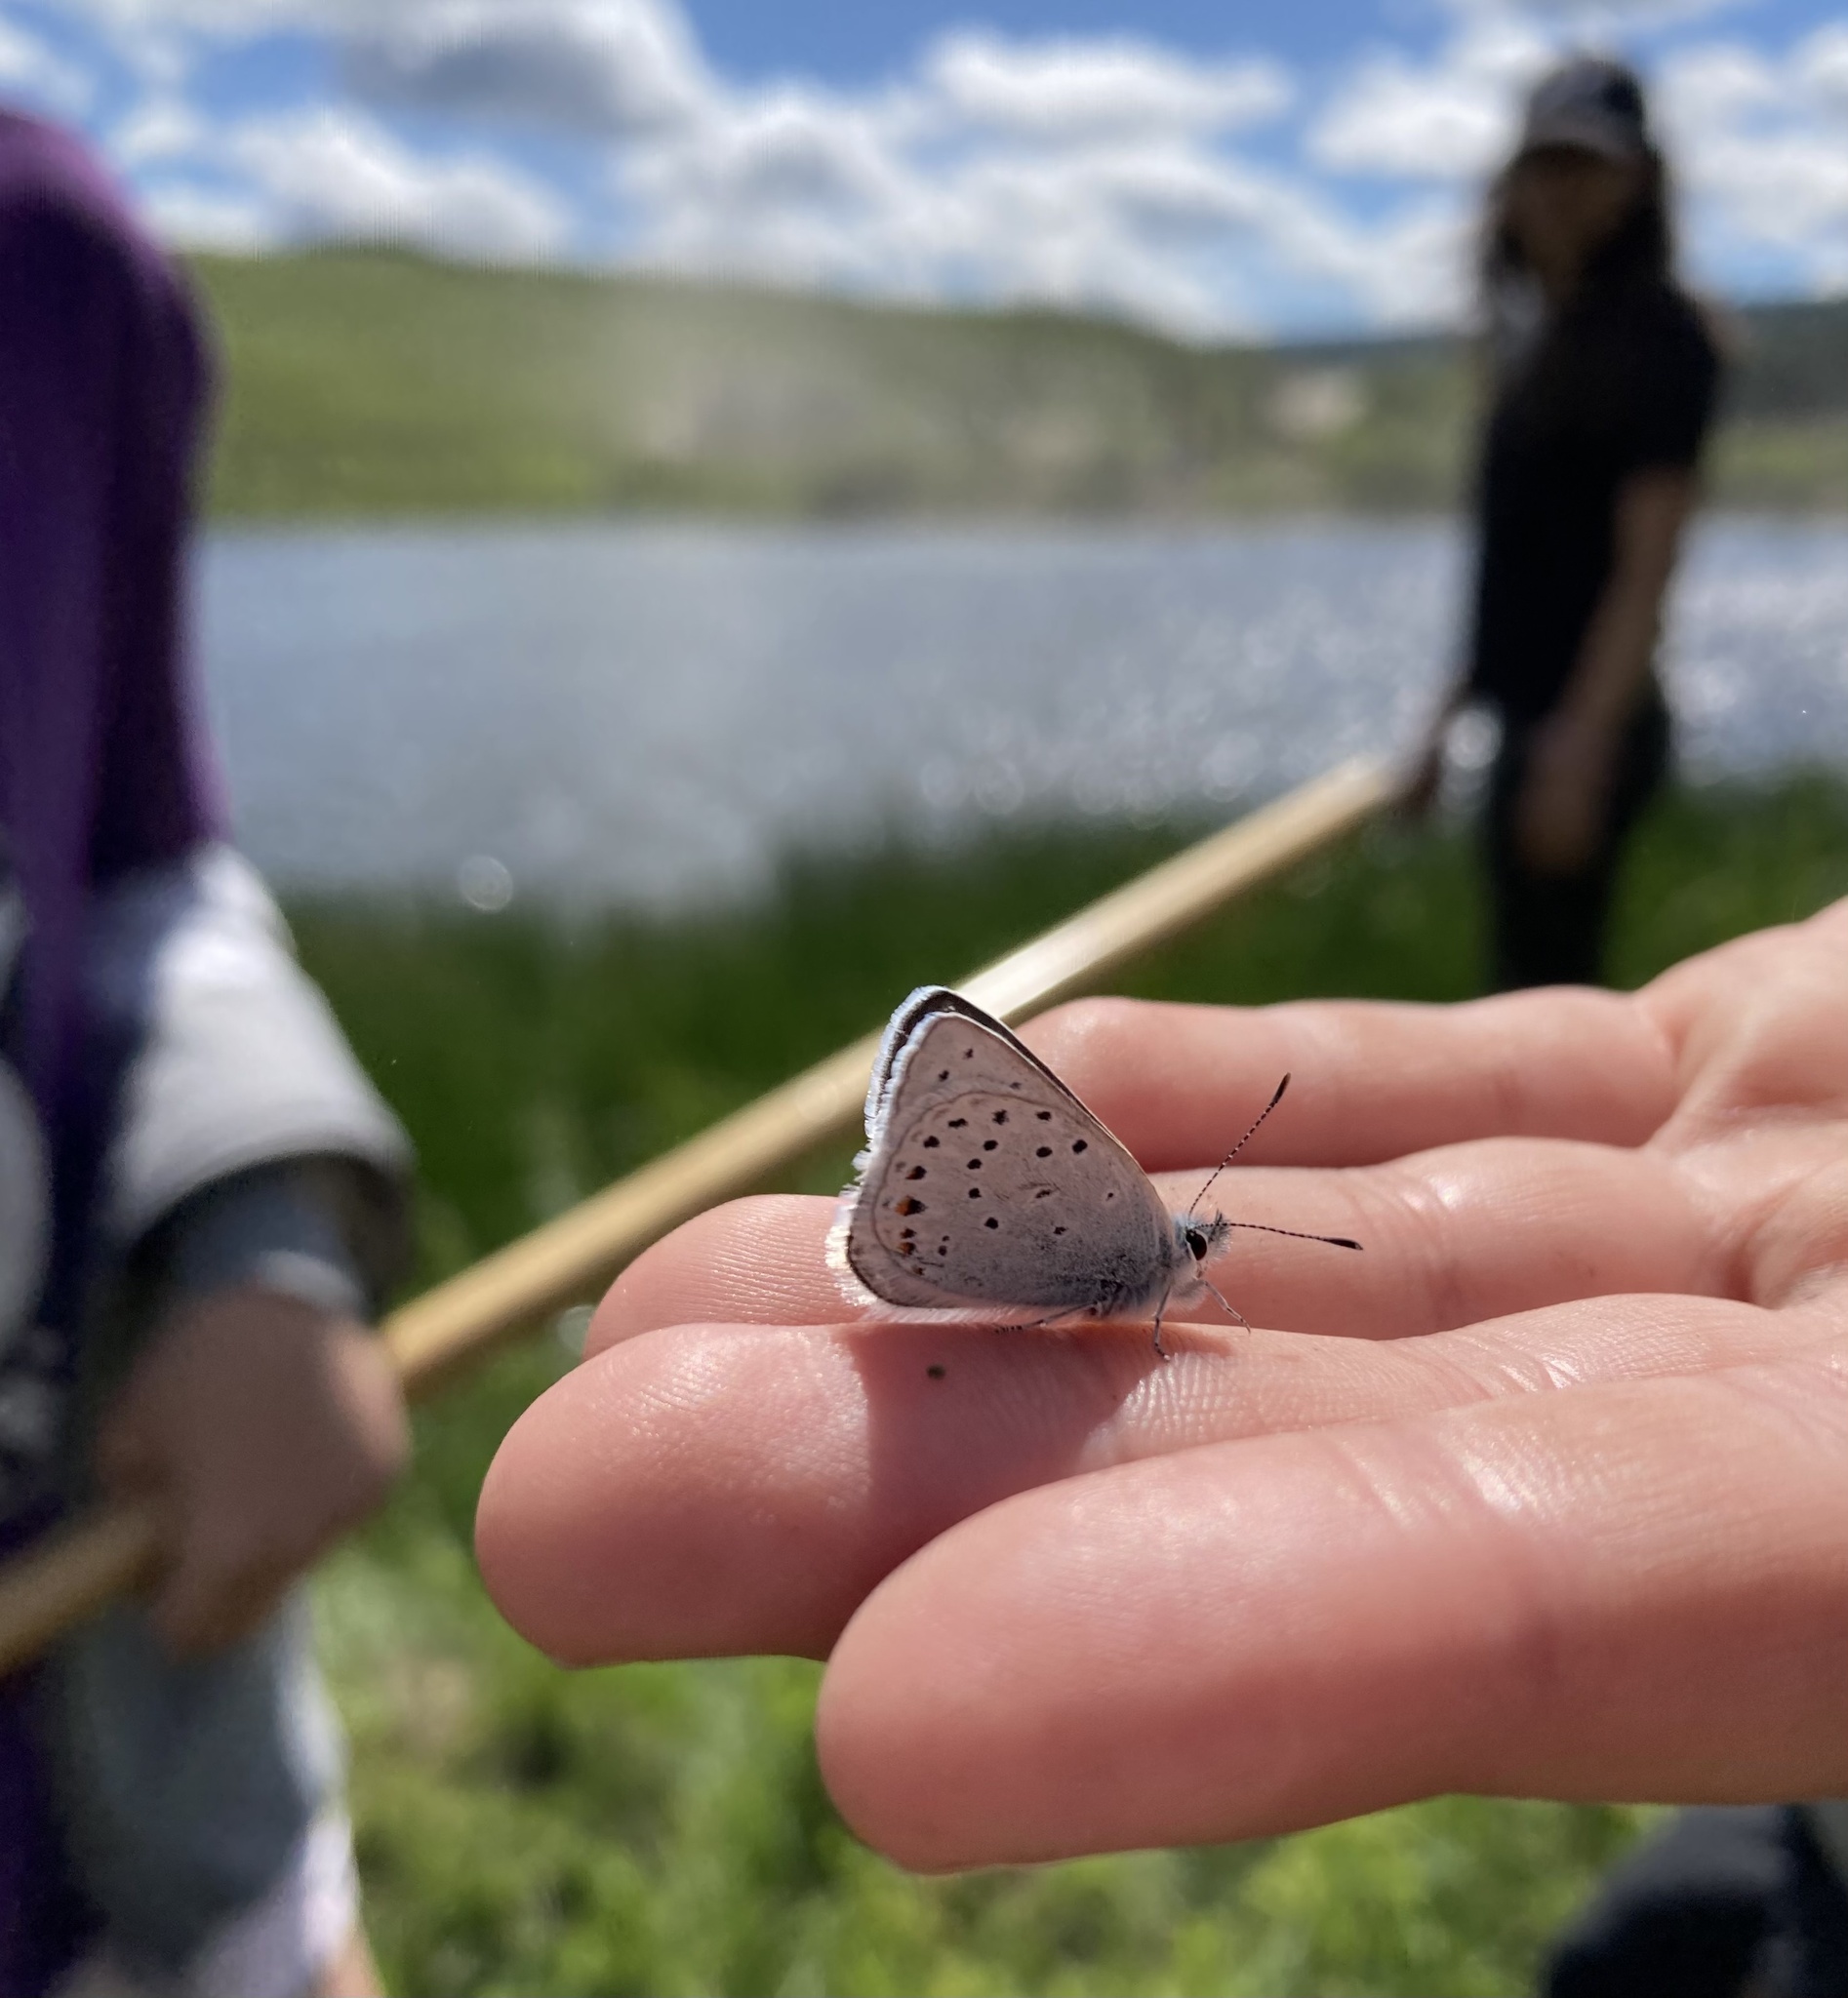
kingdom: Animalia
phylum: Arthropoda
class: Insecta
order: Lepidoptera
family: Lycaenidae
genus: Icaricia
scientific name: Icaricia saepiolus
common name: Greenish blue
